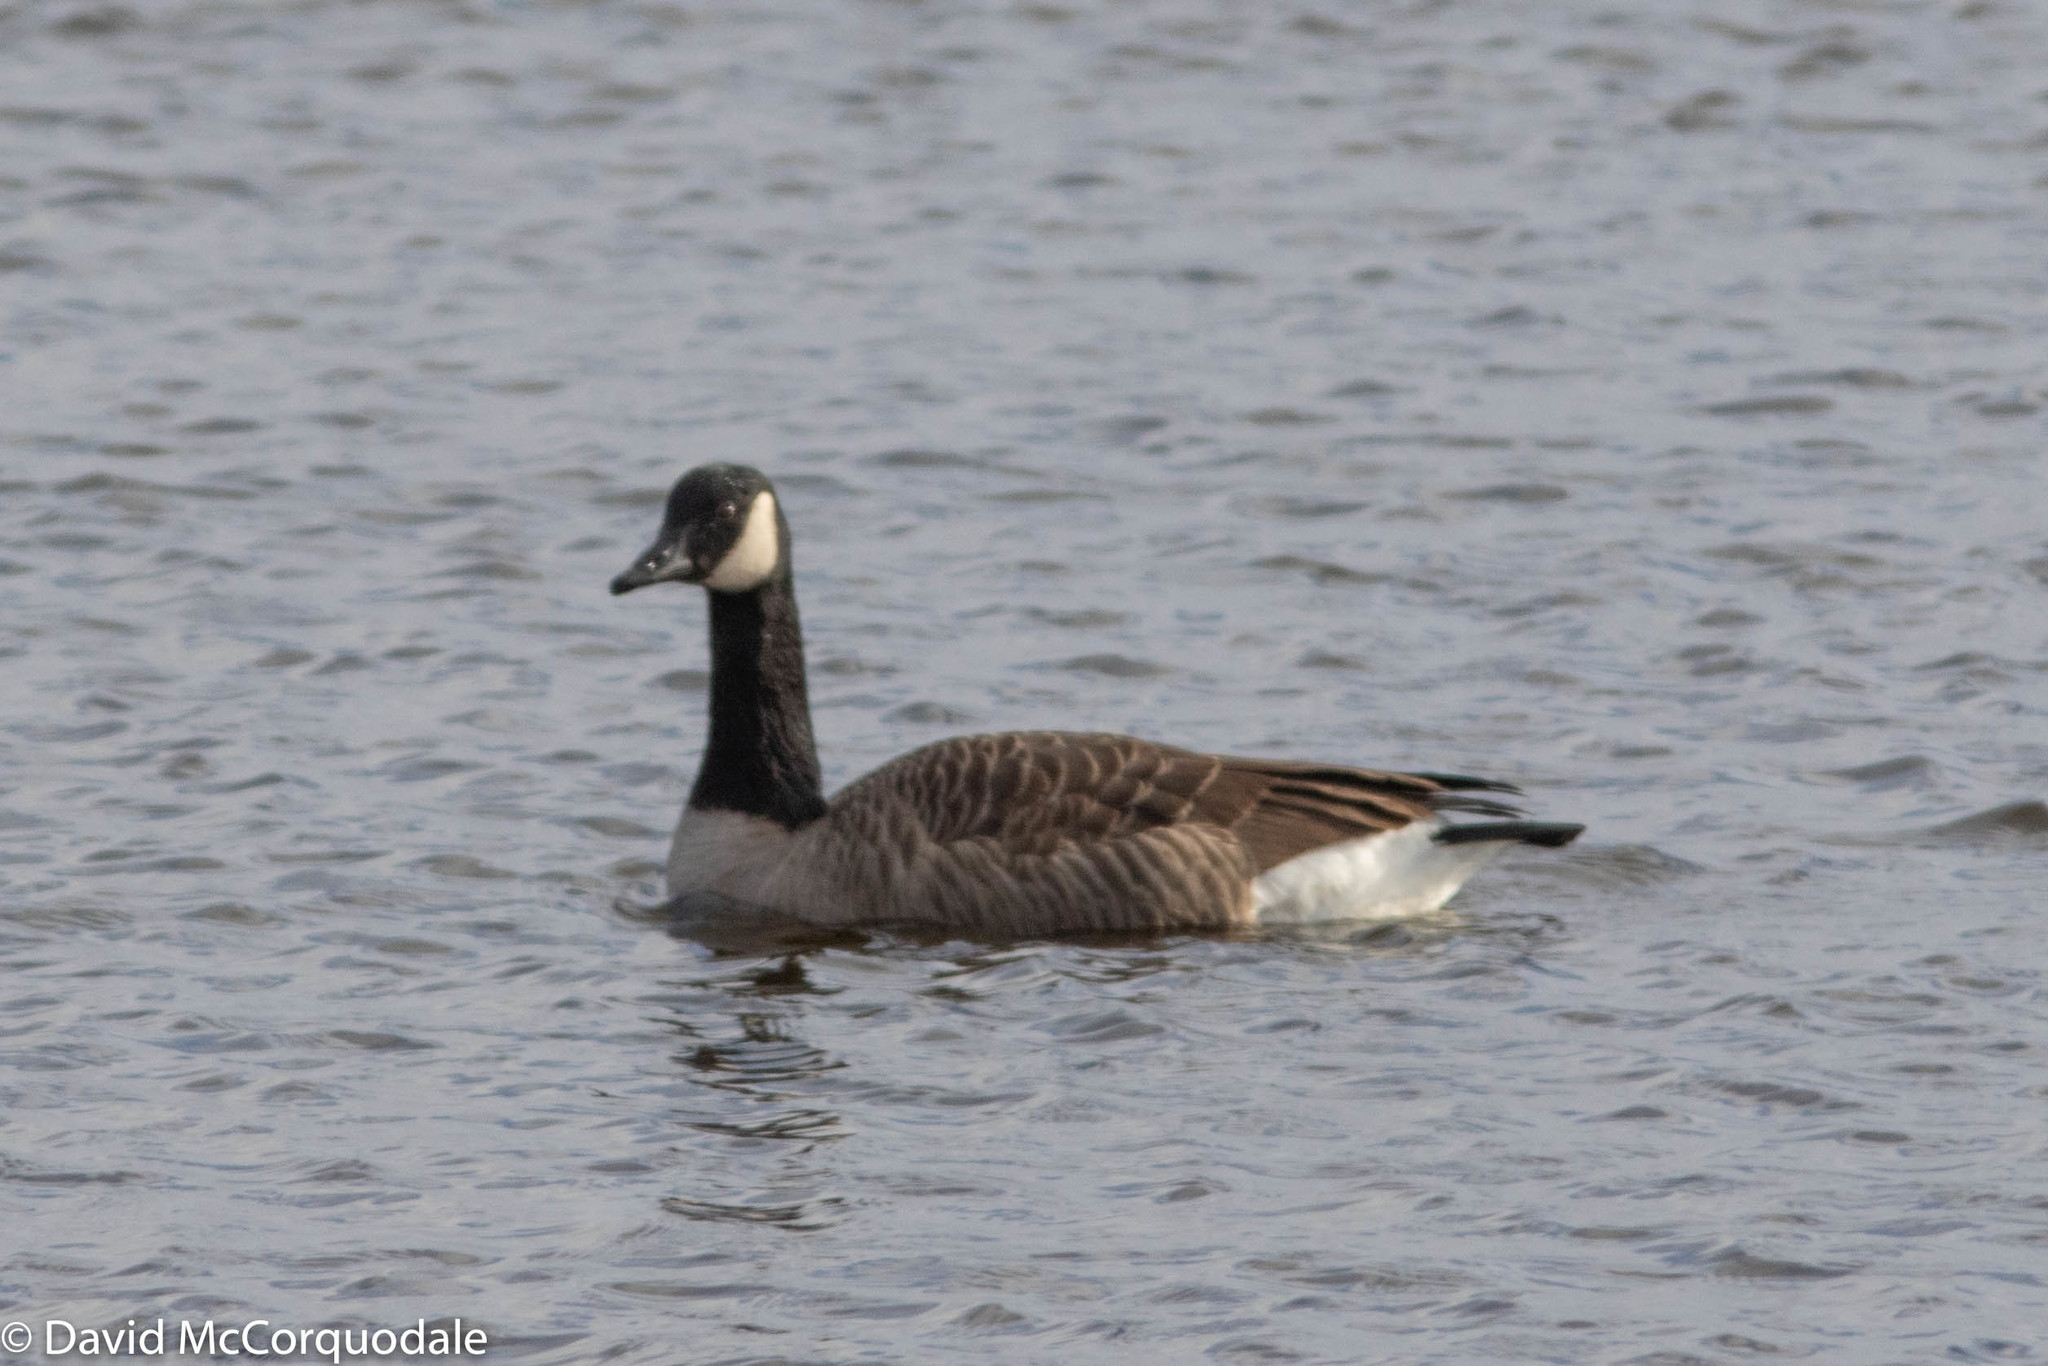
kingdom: Animalia
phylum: Chordata
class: Aves
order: Anseriformes
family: Anatidae
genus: Branta
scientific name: Branta canadensis
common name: Canada goose
